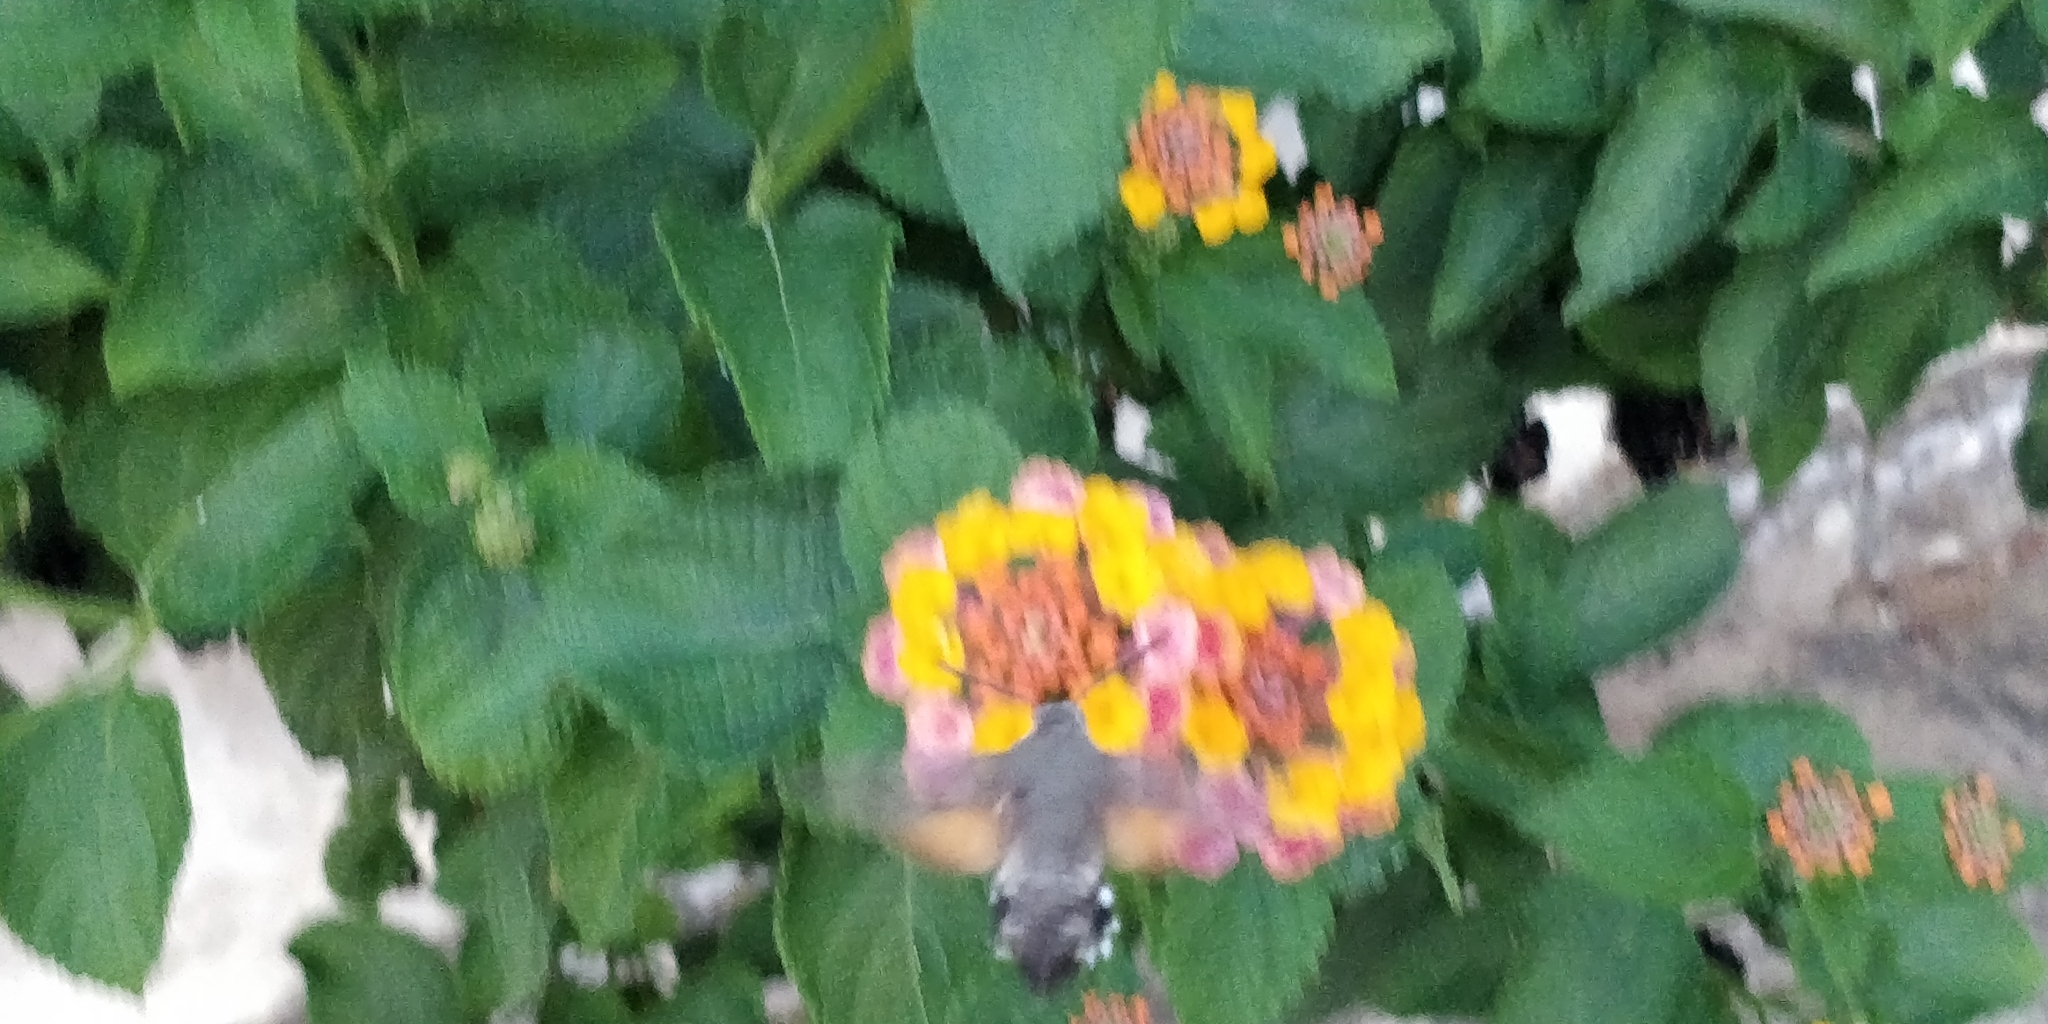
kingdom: Animalia
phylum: Arthropoda
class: Insecta
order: Lepidoptera
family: Sphingidae
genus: Macroglossum
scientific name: Macroglossum stellatarum
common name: Humming-bird hawk-moth
